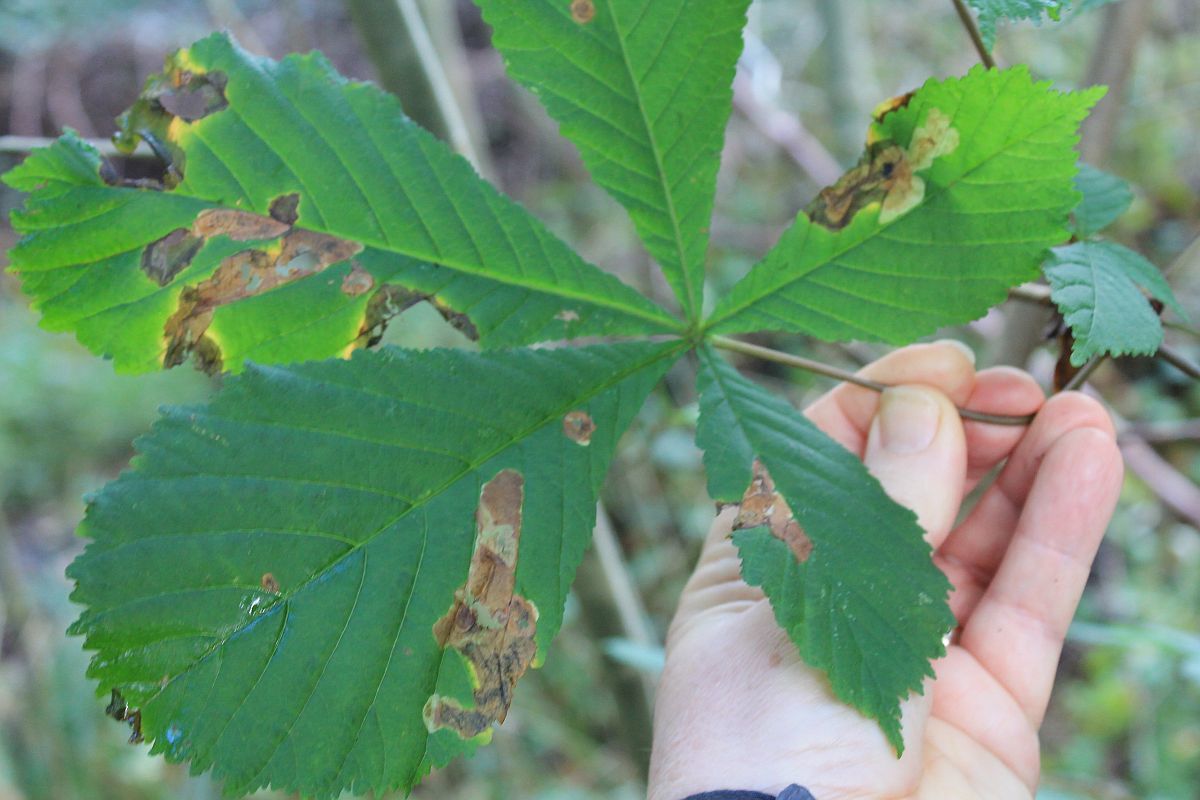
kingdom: Animalia
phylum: Arthropoda
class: Insecta
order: Lepidoptera
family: Gracillariidae
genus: Cameraria
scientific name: Cameraria ohridella
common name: Horse-chestnut leaf-miner
